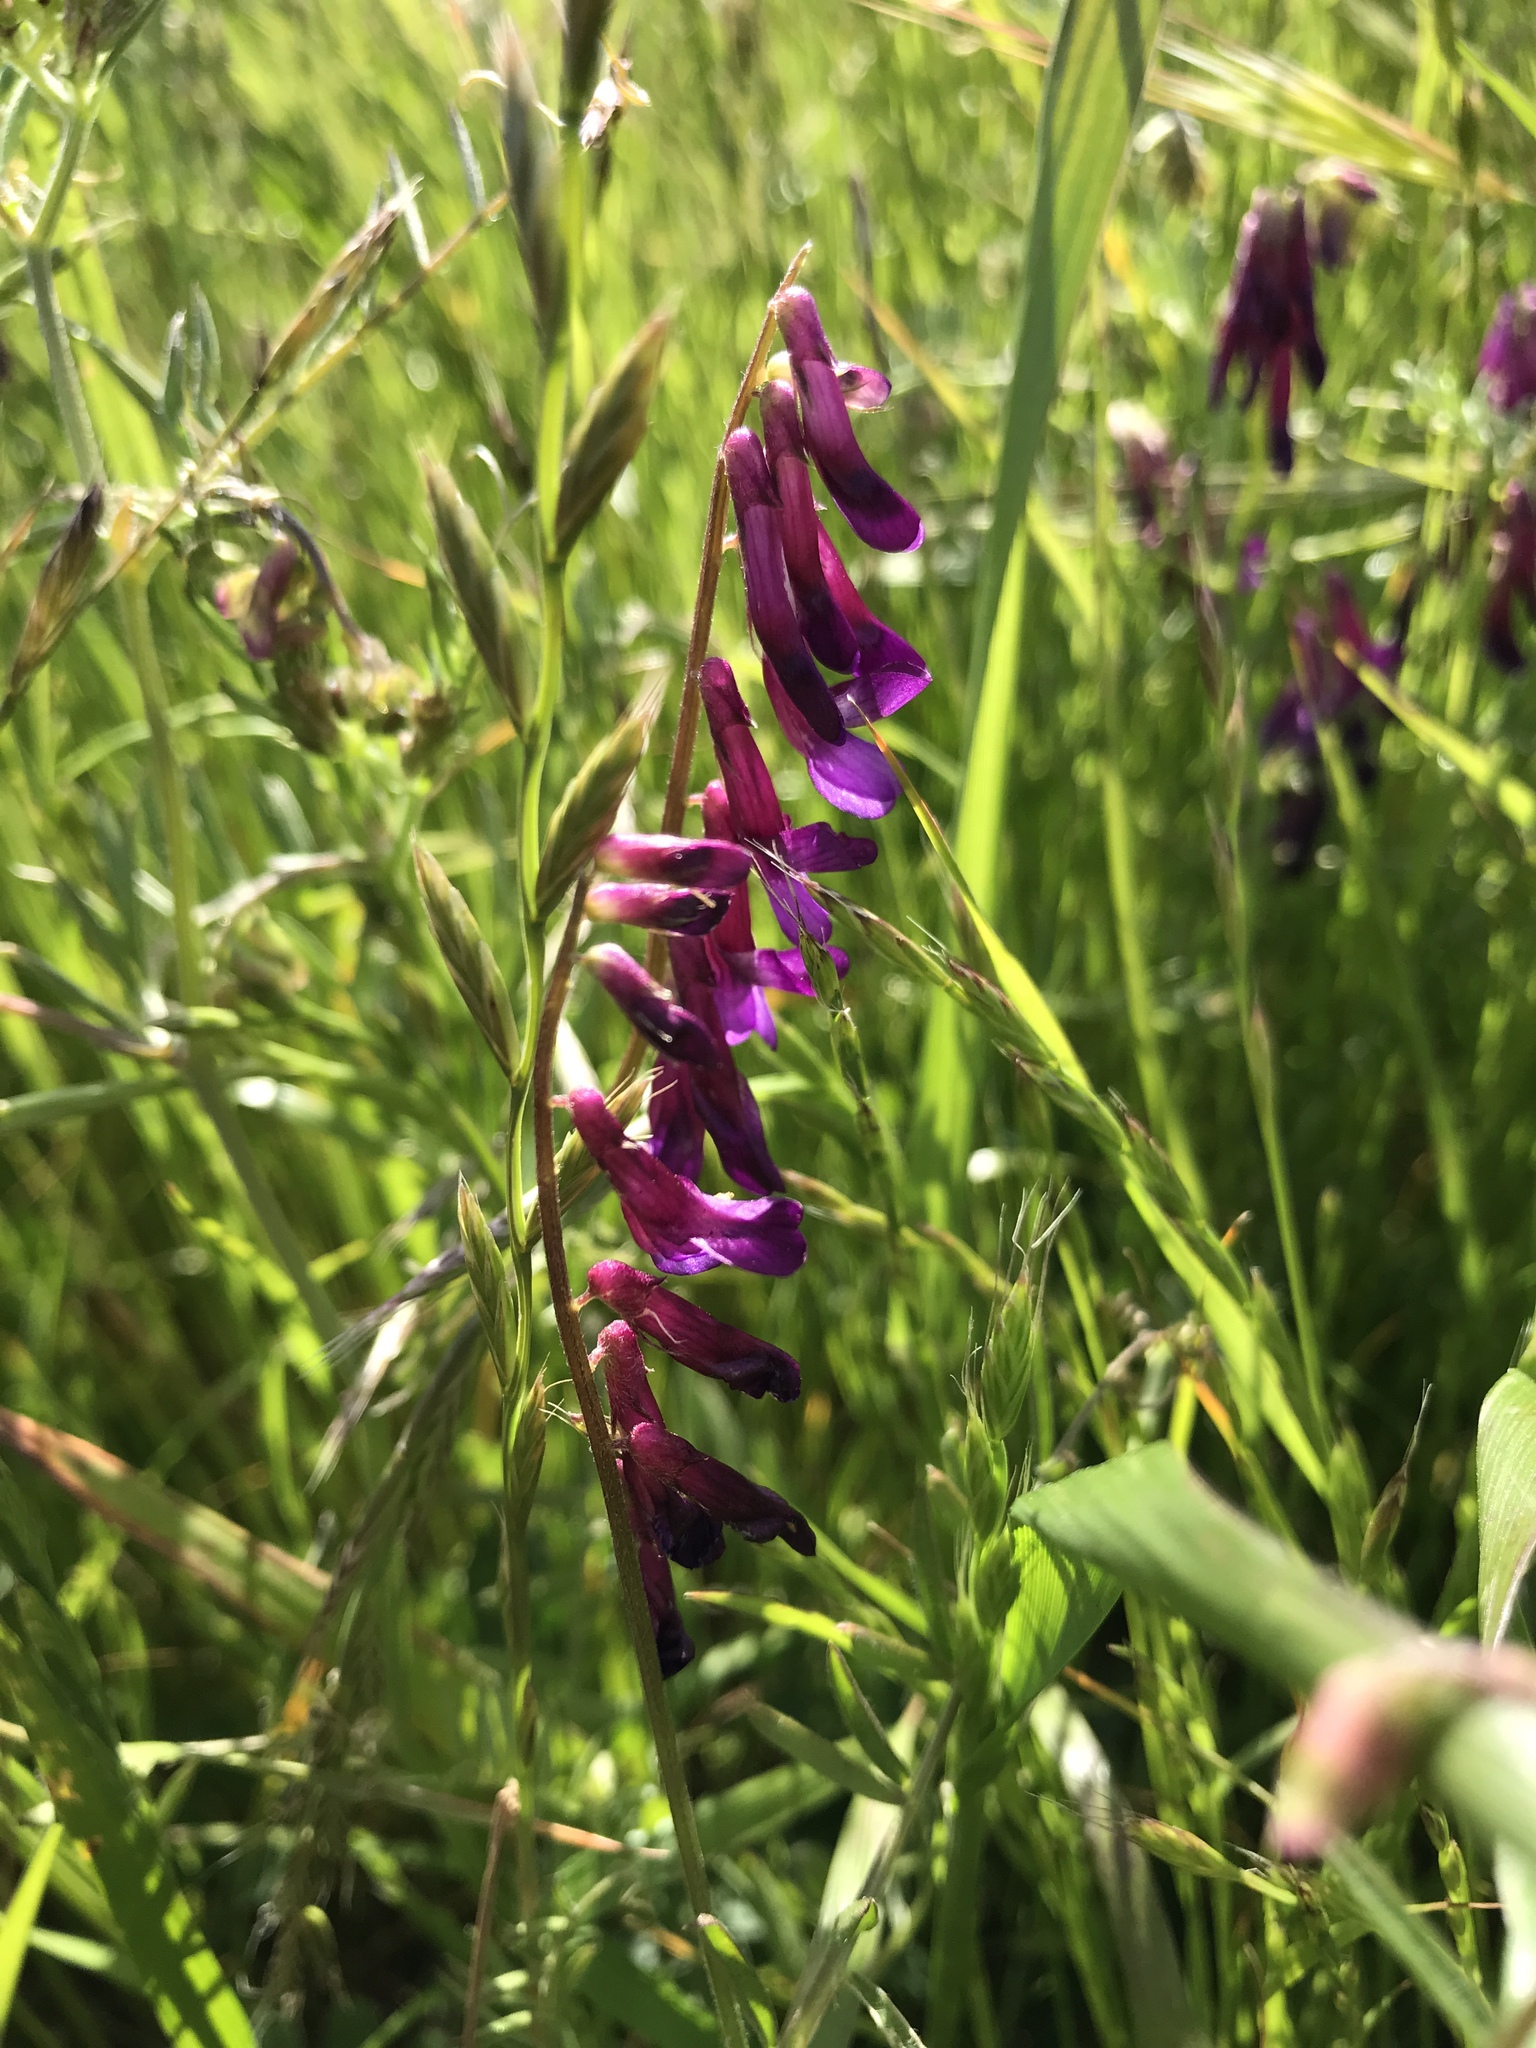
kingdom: Plantae
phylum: Tracheophyta
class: Magnoliopsida
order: Fabales
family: Fabaceae
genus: Vicia
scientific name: Vicia villosa
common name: Fodder vetch
